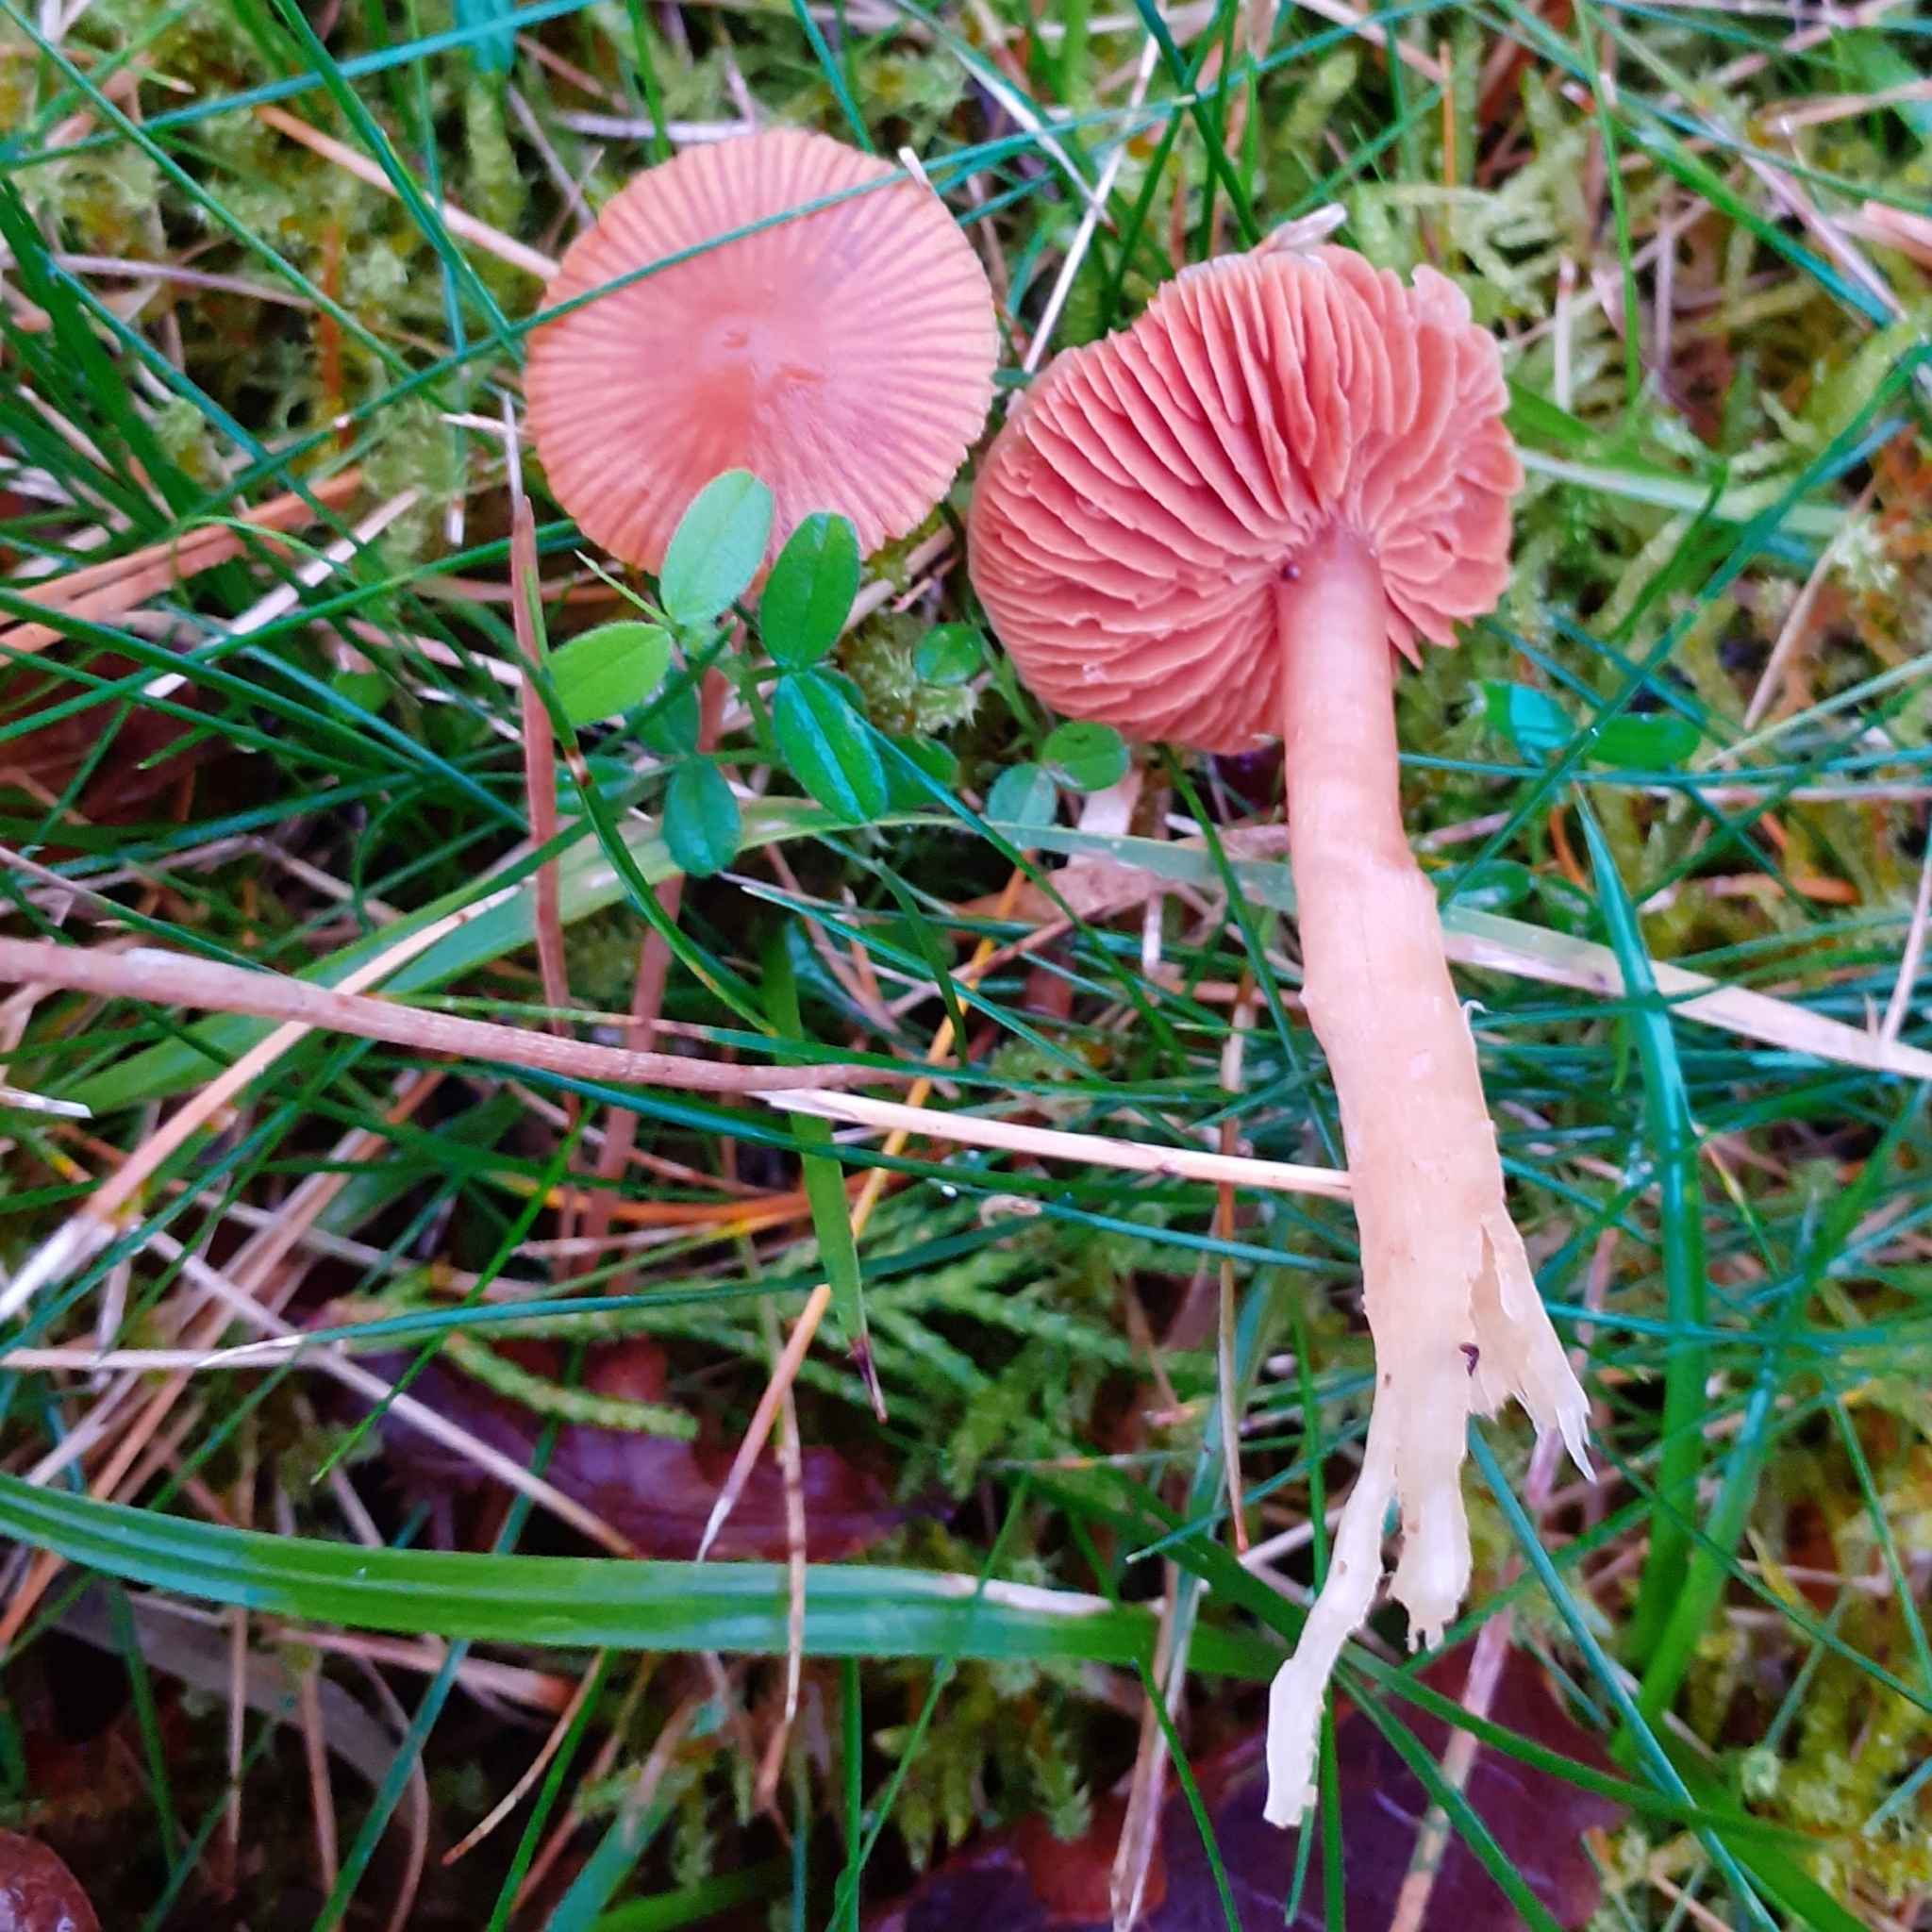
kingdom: Fungi
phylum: Basidiomycota
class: Agaricomycetes
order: Agaricales
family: Hygrophoraceae
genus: Gliophorus
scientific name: Gliophorus psittacinus
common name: Parrot wax-cap
